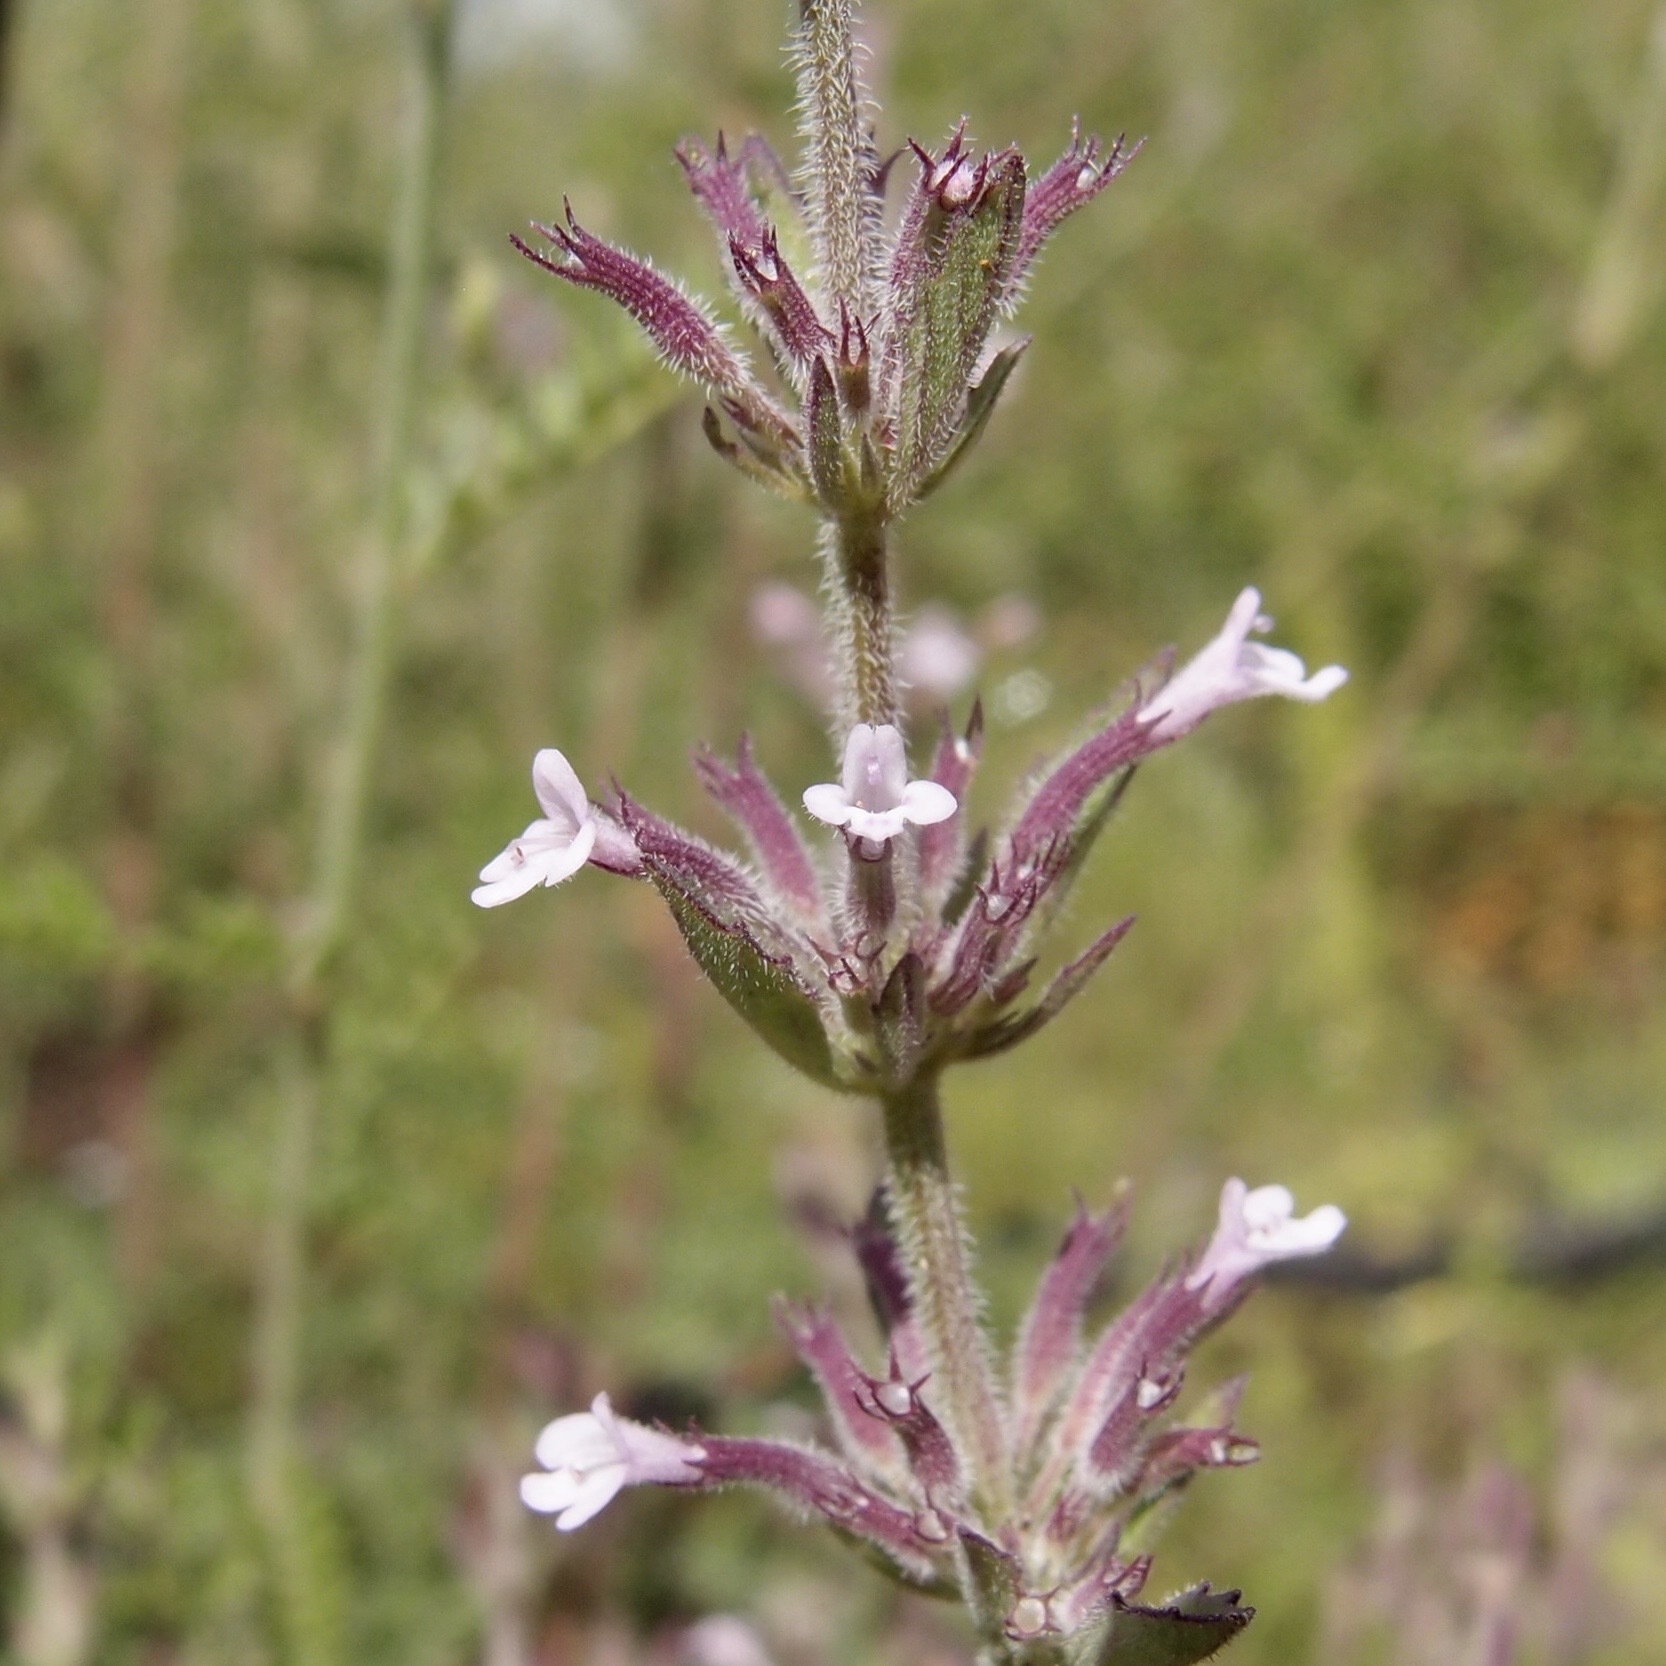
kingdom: Plantae
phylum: Tracheophyta
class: Magnoliopsida
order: Lamiales
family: Lamiaceae
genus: Hedeoma
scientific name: Hedeoma dentata
